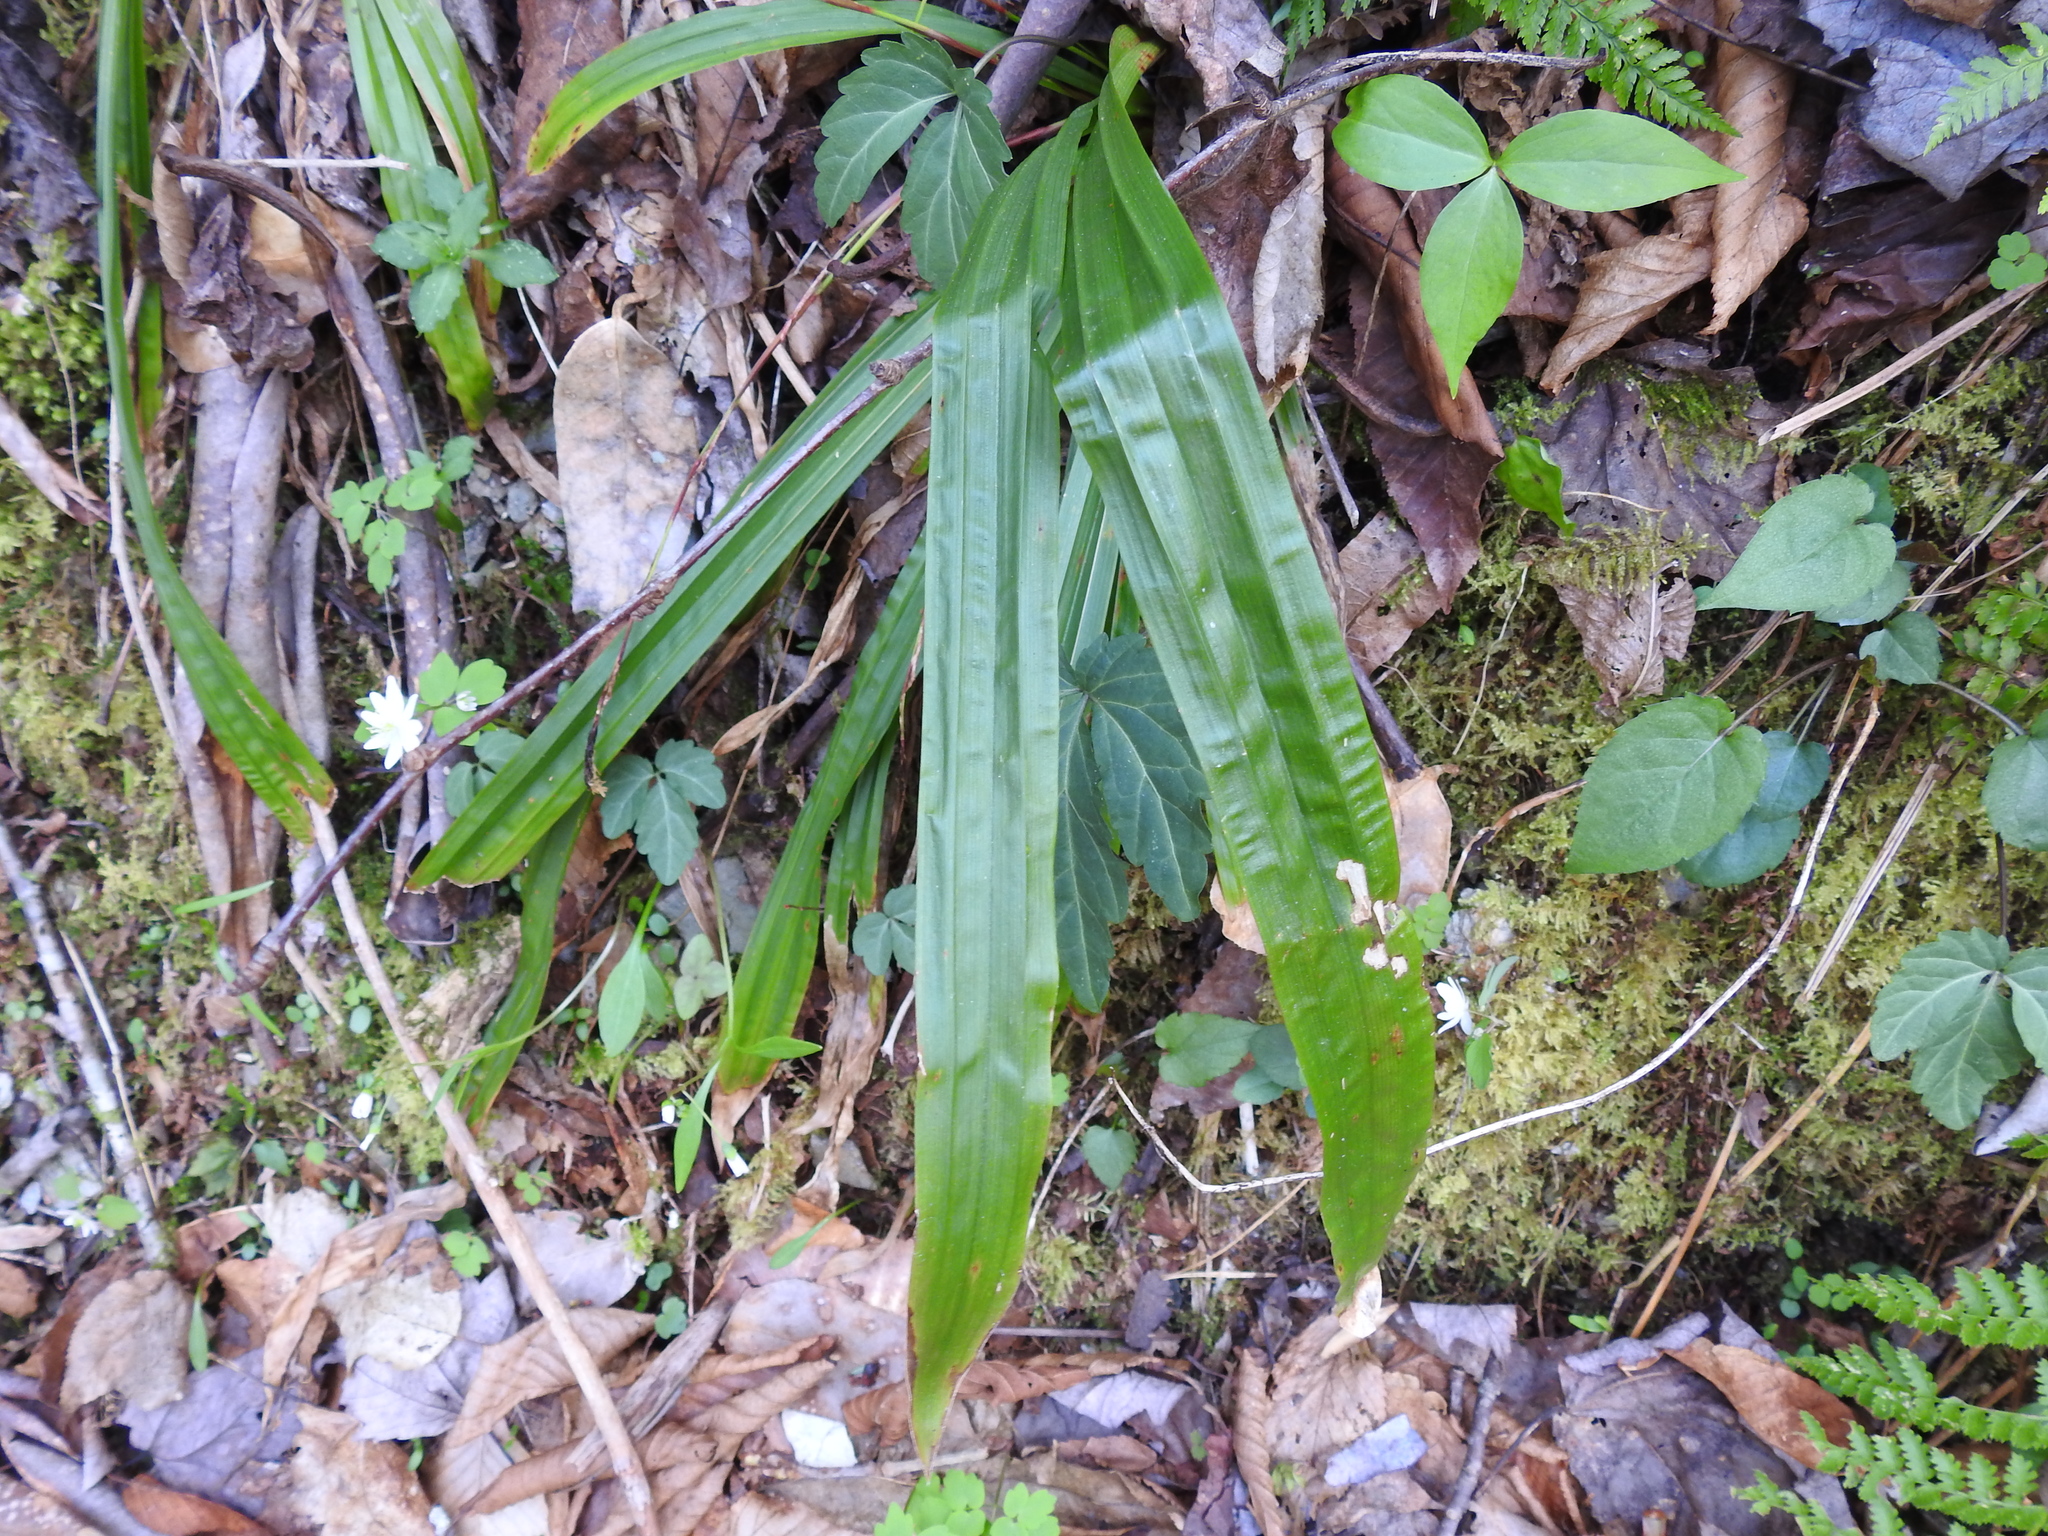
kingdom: Plantae
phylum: Tracheophyta
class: Liliopsida
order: Poales
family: Cyperaceae
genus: Carex
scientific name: Carex plantaginea
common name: Plantain-leaved sedge
